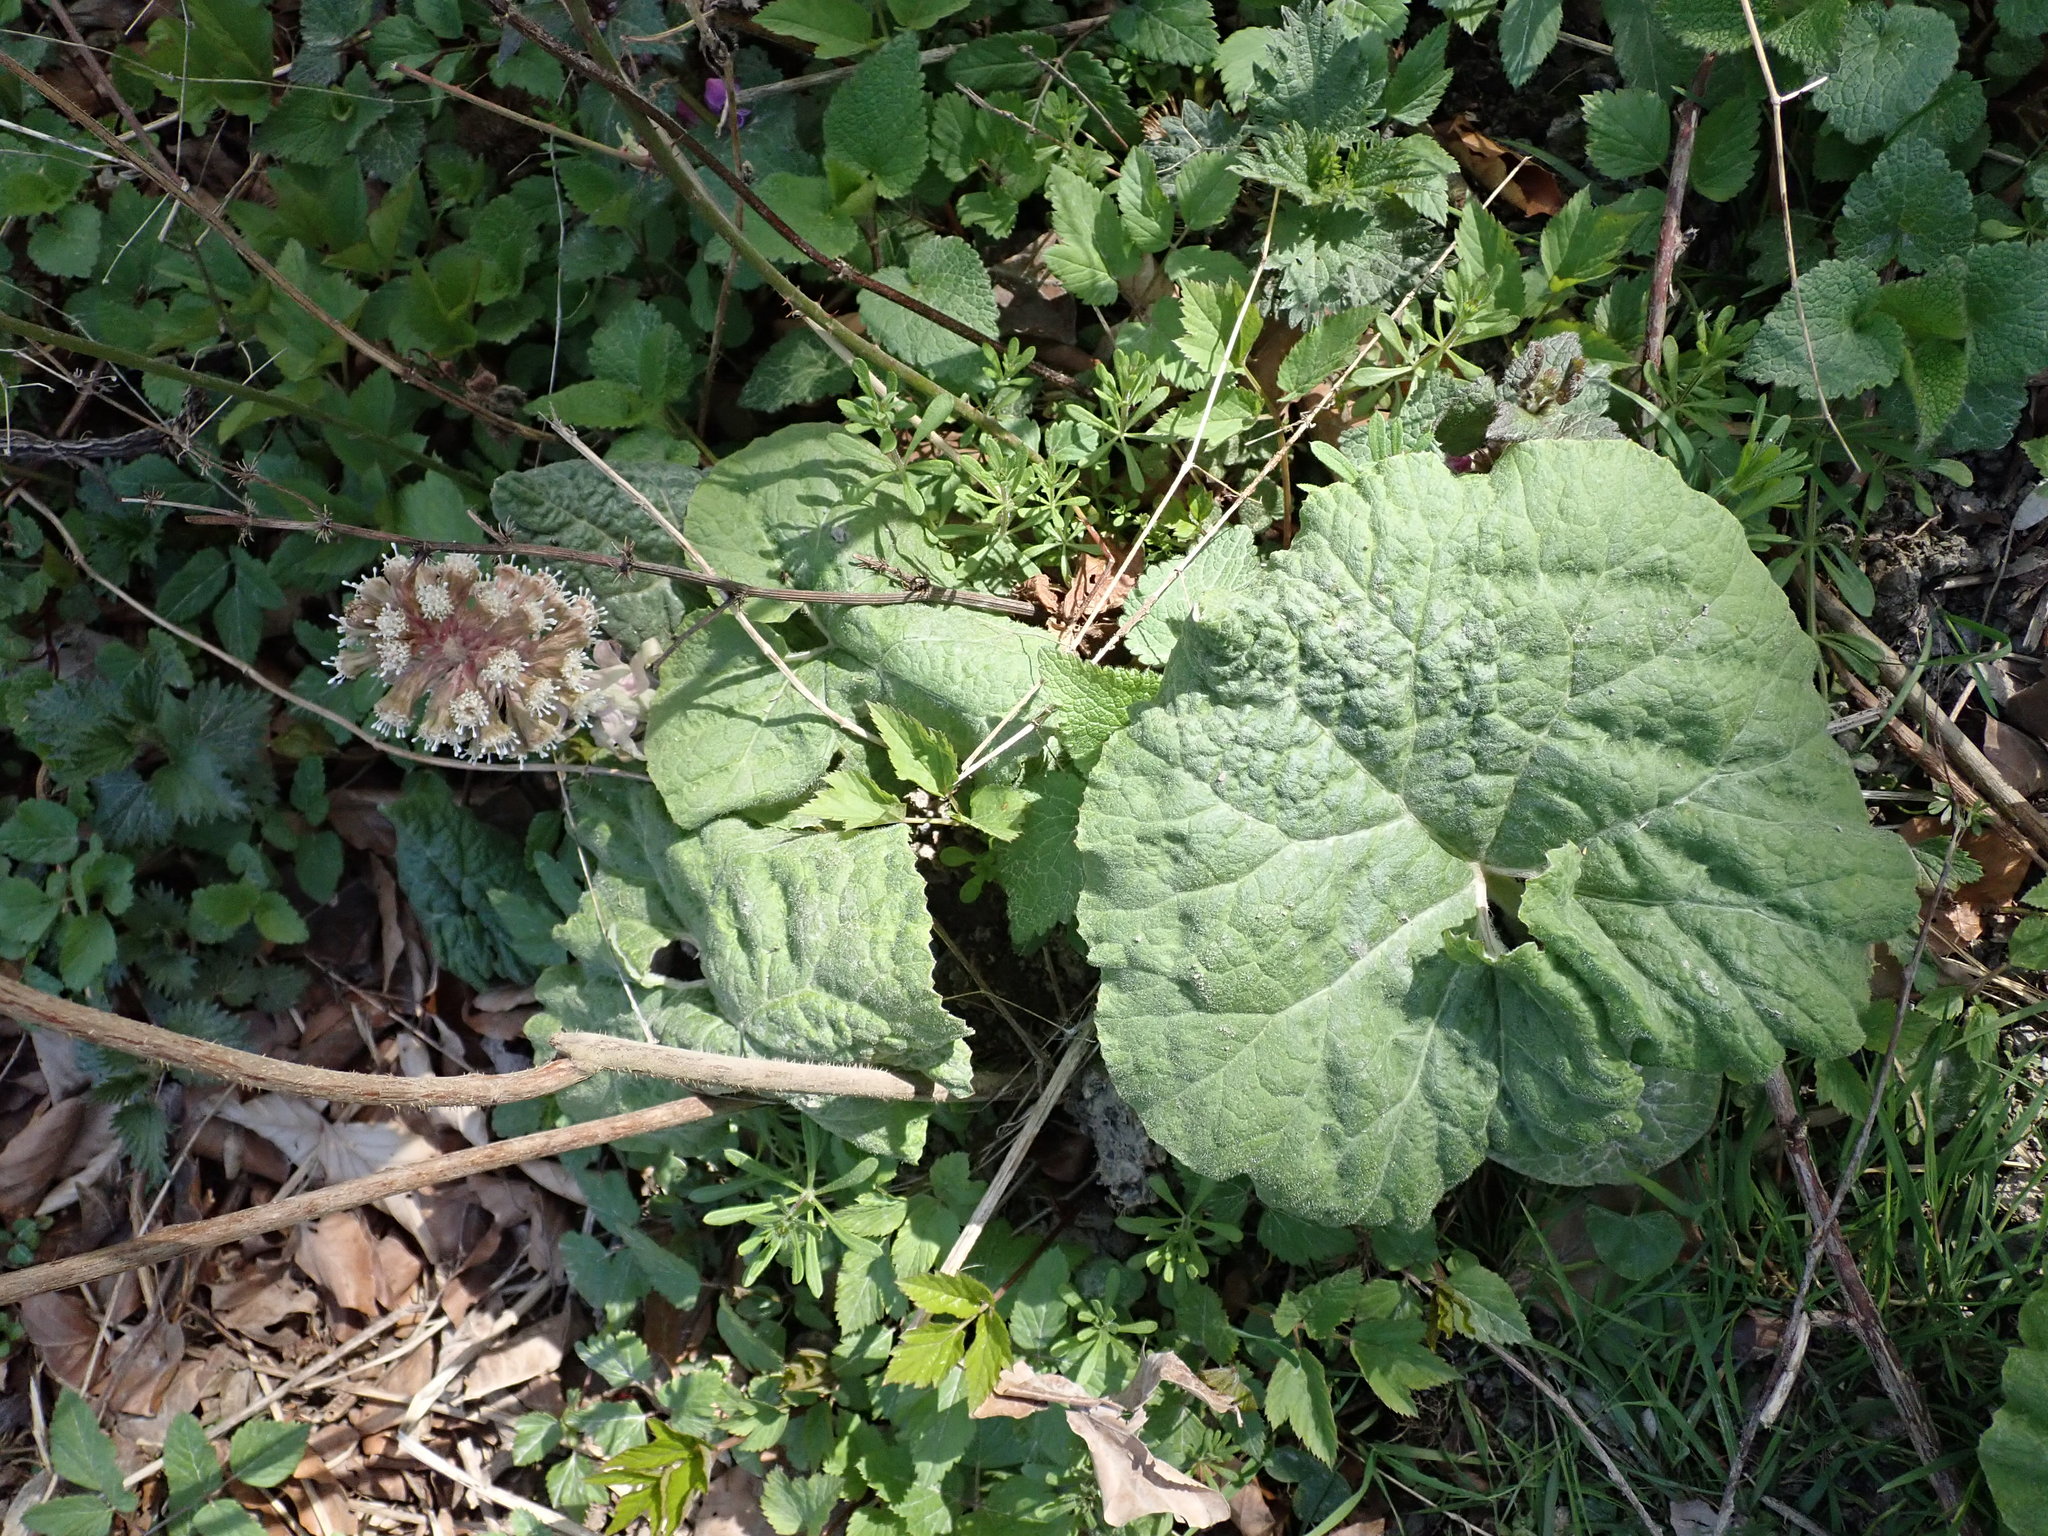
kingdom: Plantae
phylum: Tracheophyta
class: Magnoliopsida
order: Asterales
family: Asteraceae
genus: Petasites
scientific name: Petasites hybridus
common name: Butterbur
